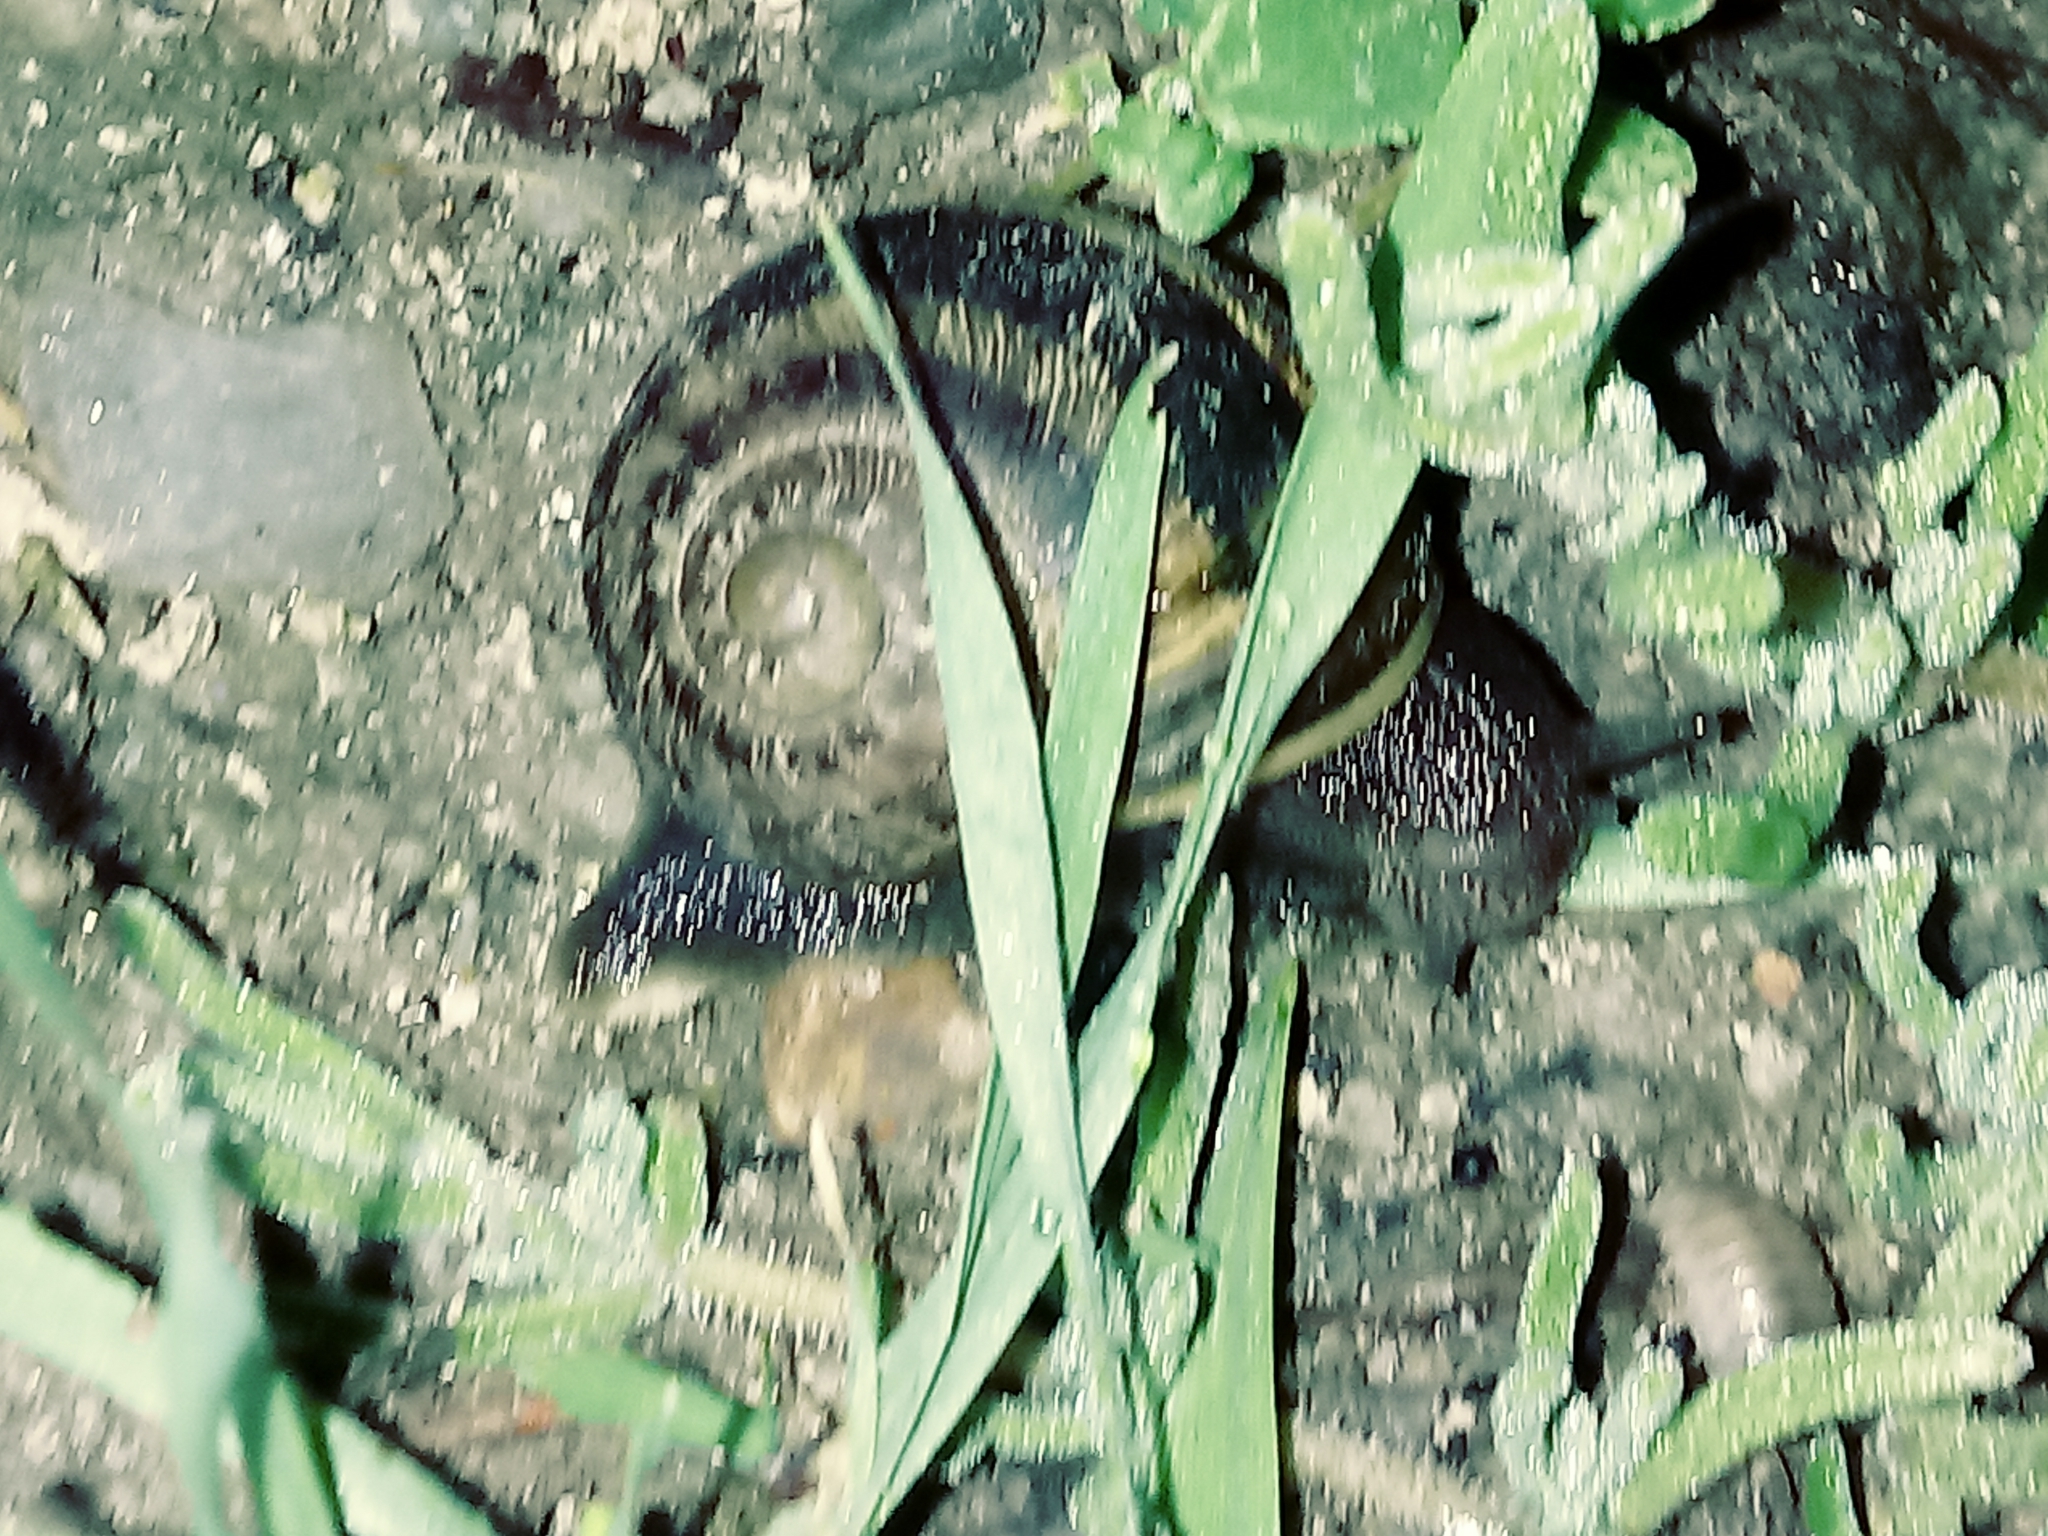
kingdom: Animalia
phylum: Mollusca
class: Gastropoda
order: Stylommatophora
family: Helicidae
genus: Cornu
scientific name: Cornu aspersum
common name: Brown garden snail
